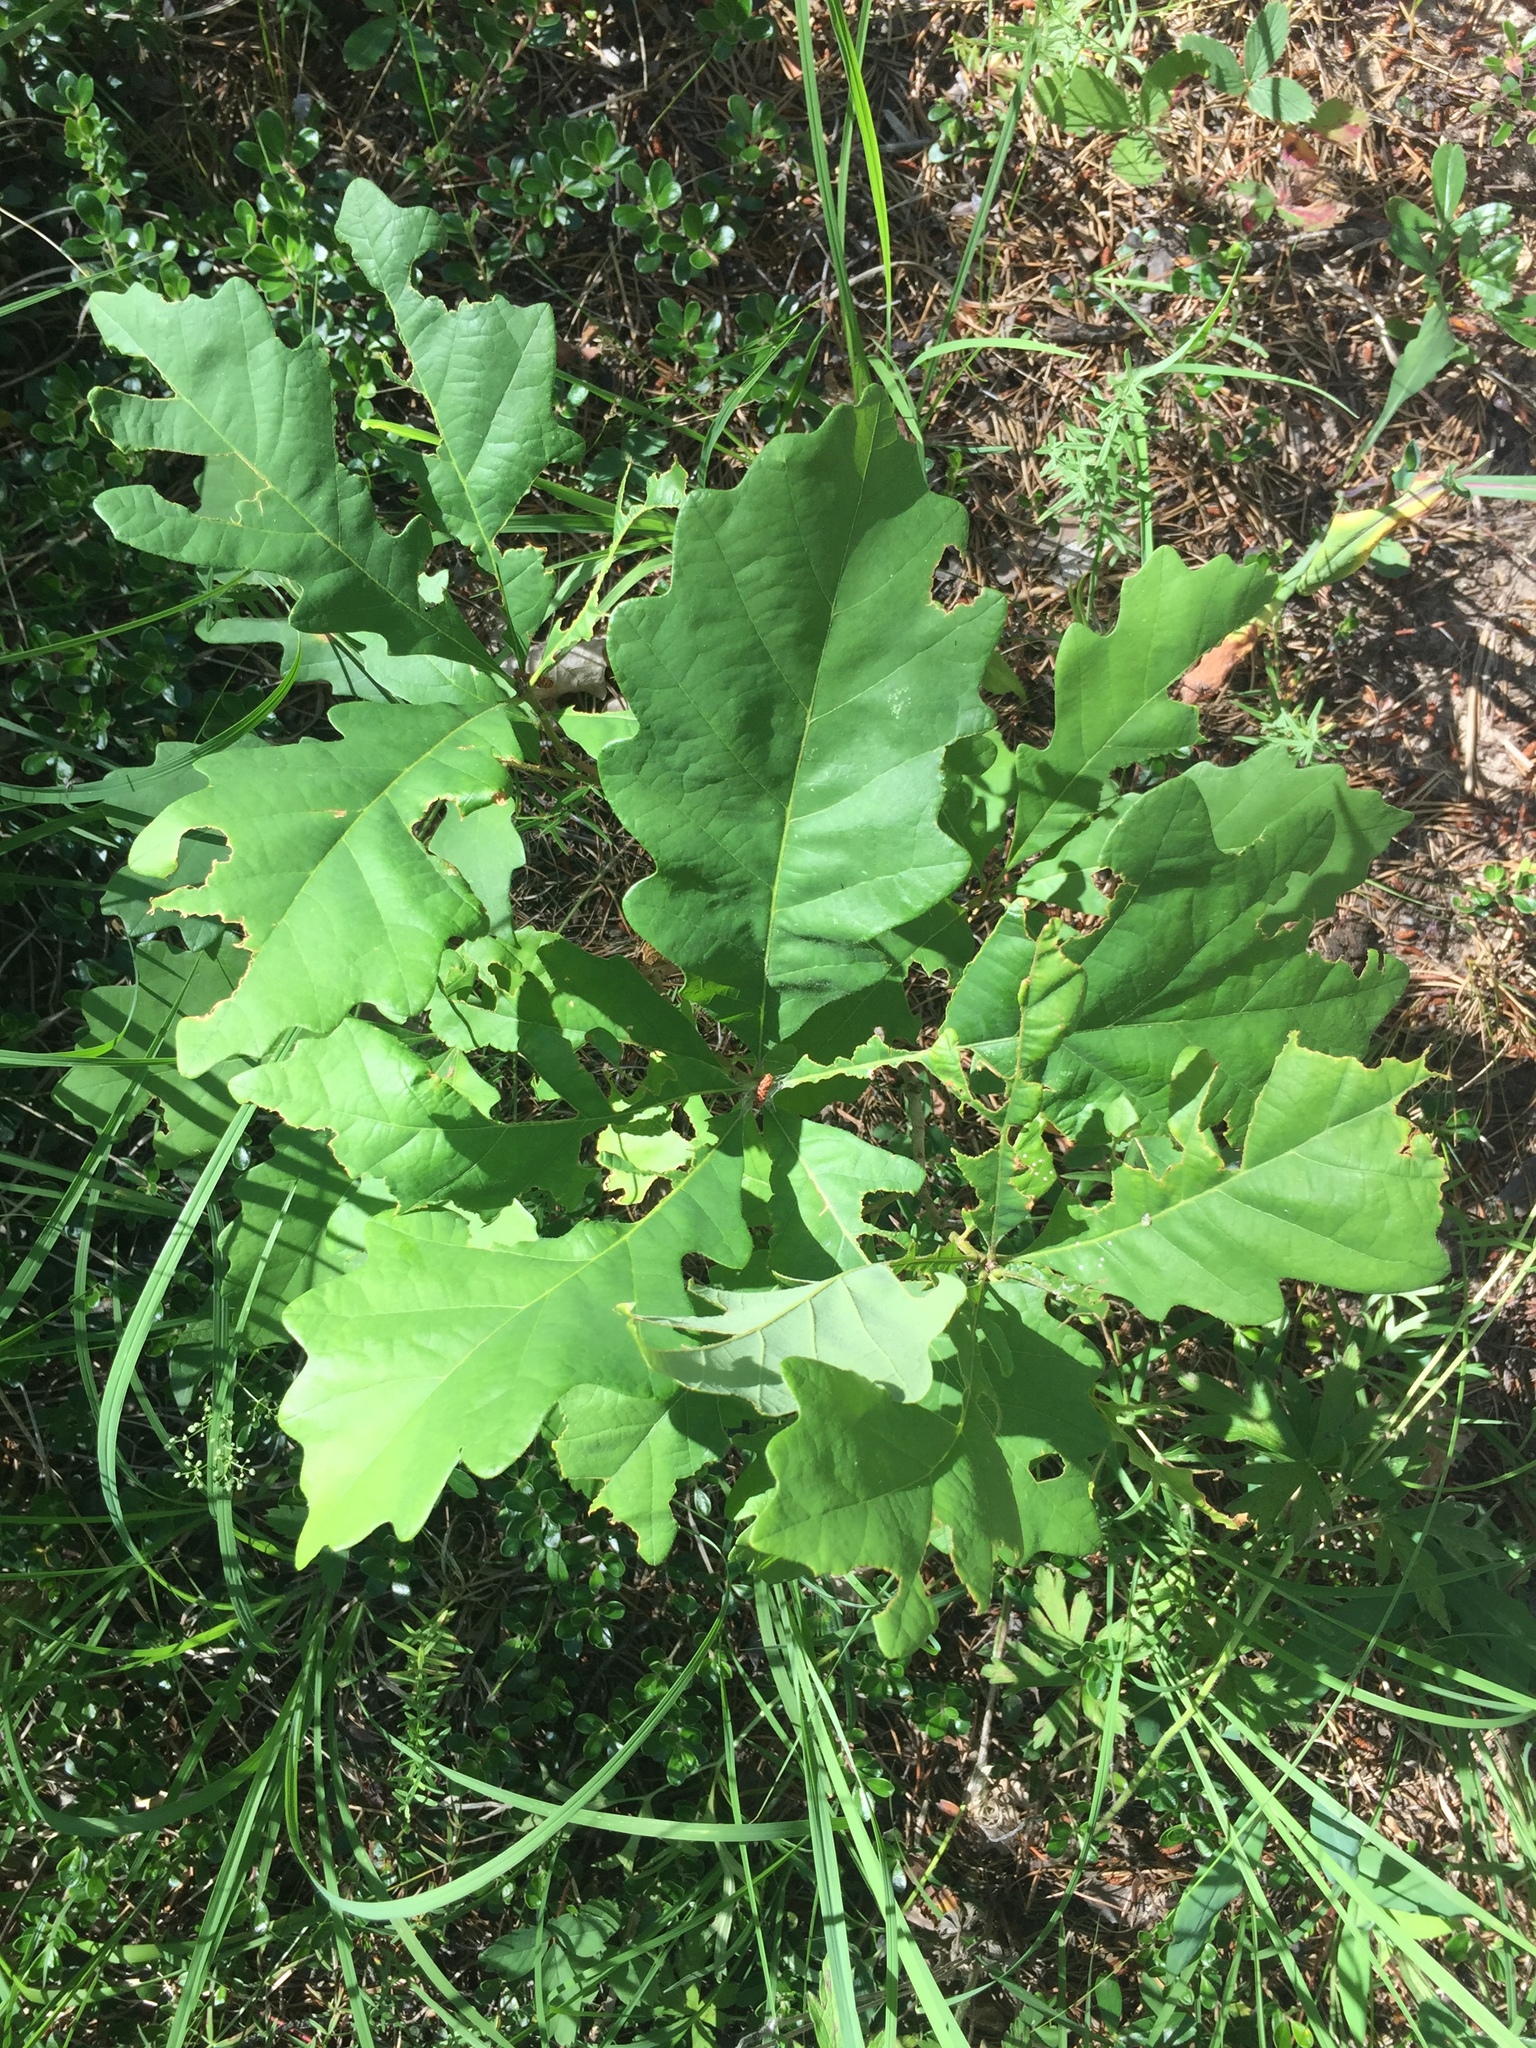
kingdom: Plantae
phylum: Tracheophyta
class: Magnoliopsida
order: Fagales
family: Fagaceae
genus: Quercus
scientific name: Quercus macrocarpa
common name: Bur oak
